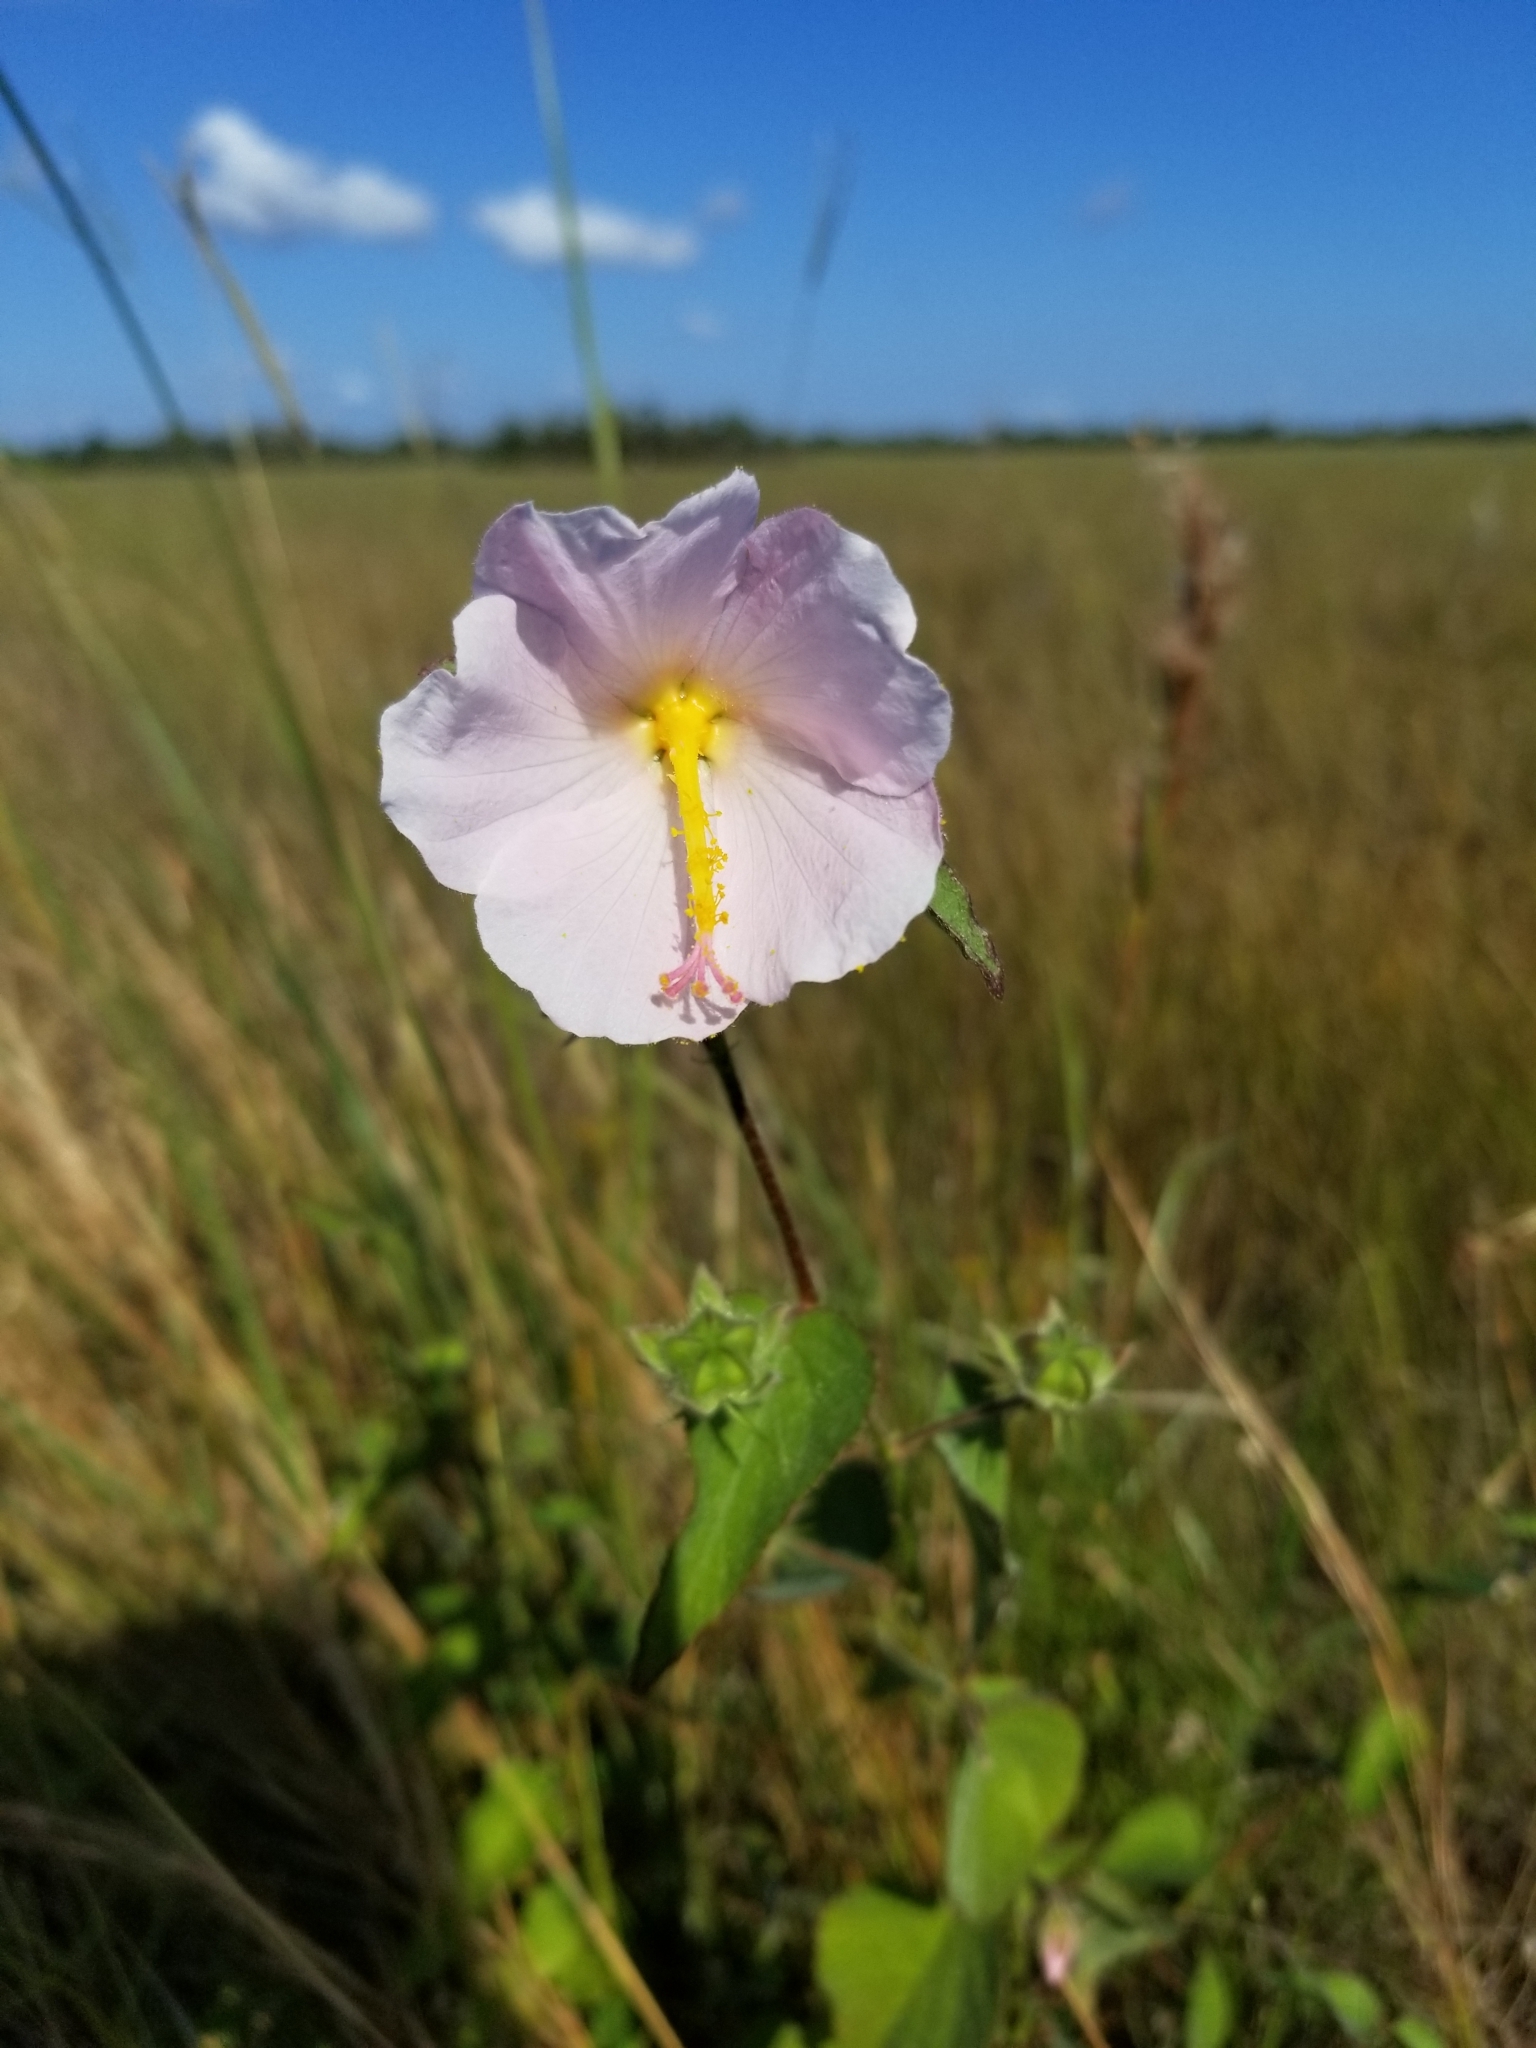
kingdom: Plantae
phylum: Tracheophyta
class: Magnoliopsida
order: Malvales
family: Malvaceae
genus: Kosteletzkya
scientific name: Kosteletzkya pentacarpos
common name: Virginia saltmarsh mallow
